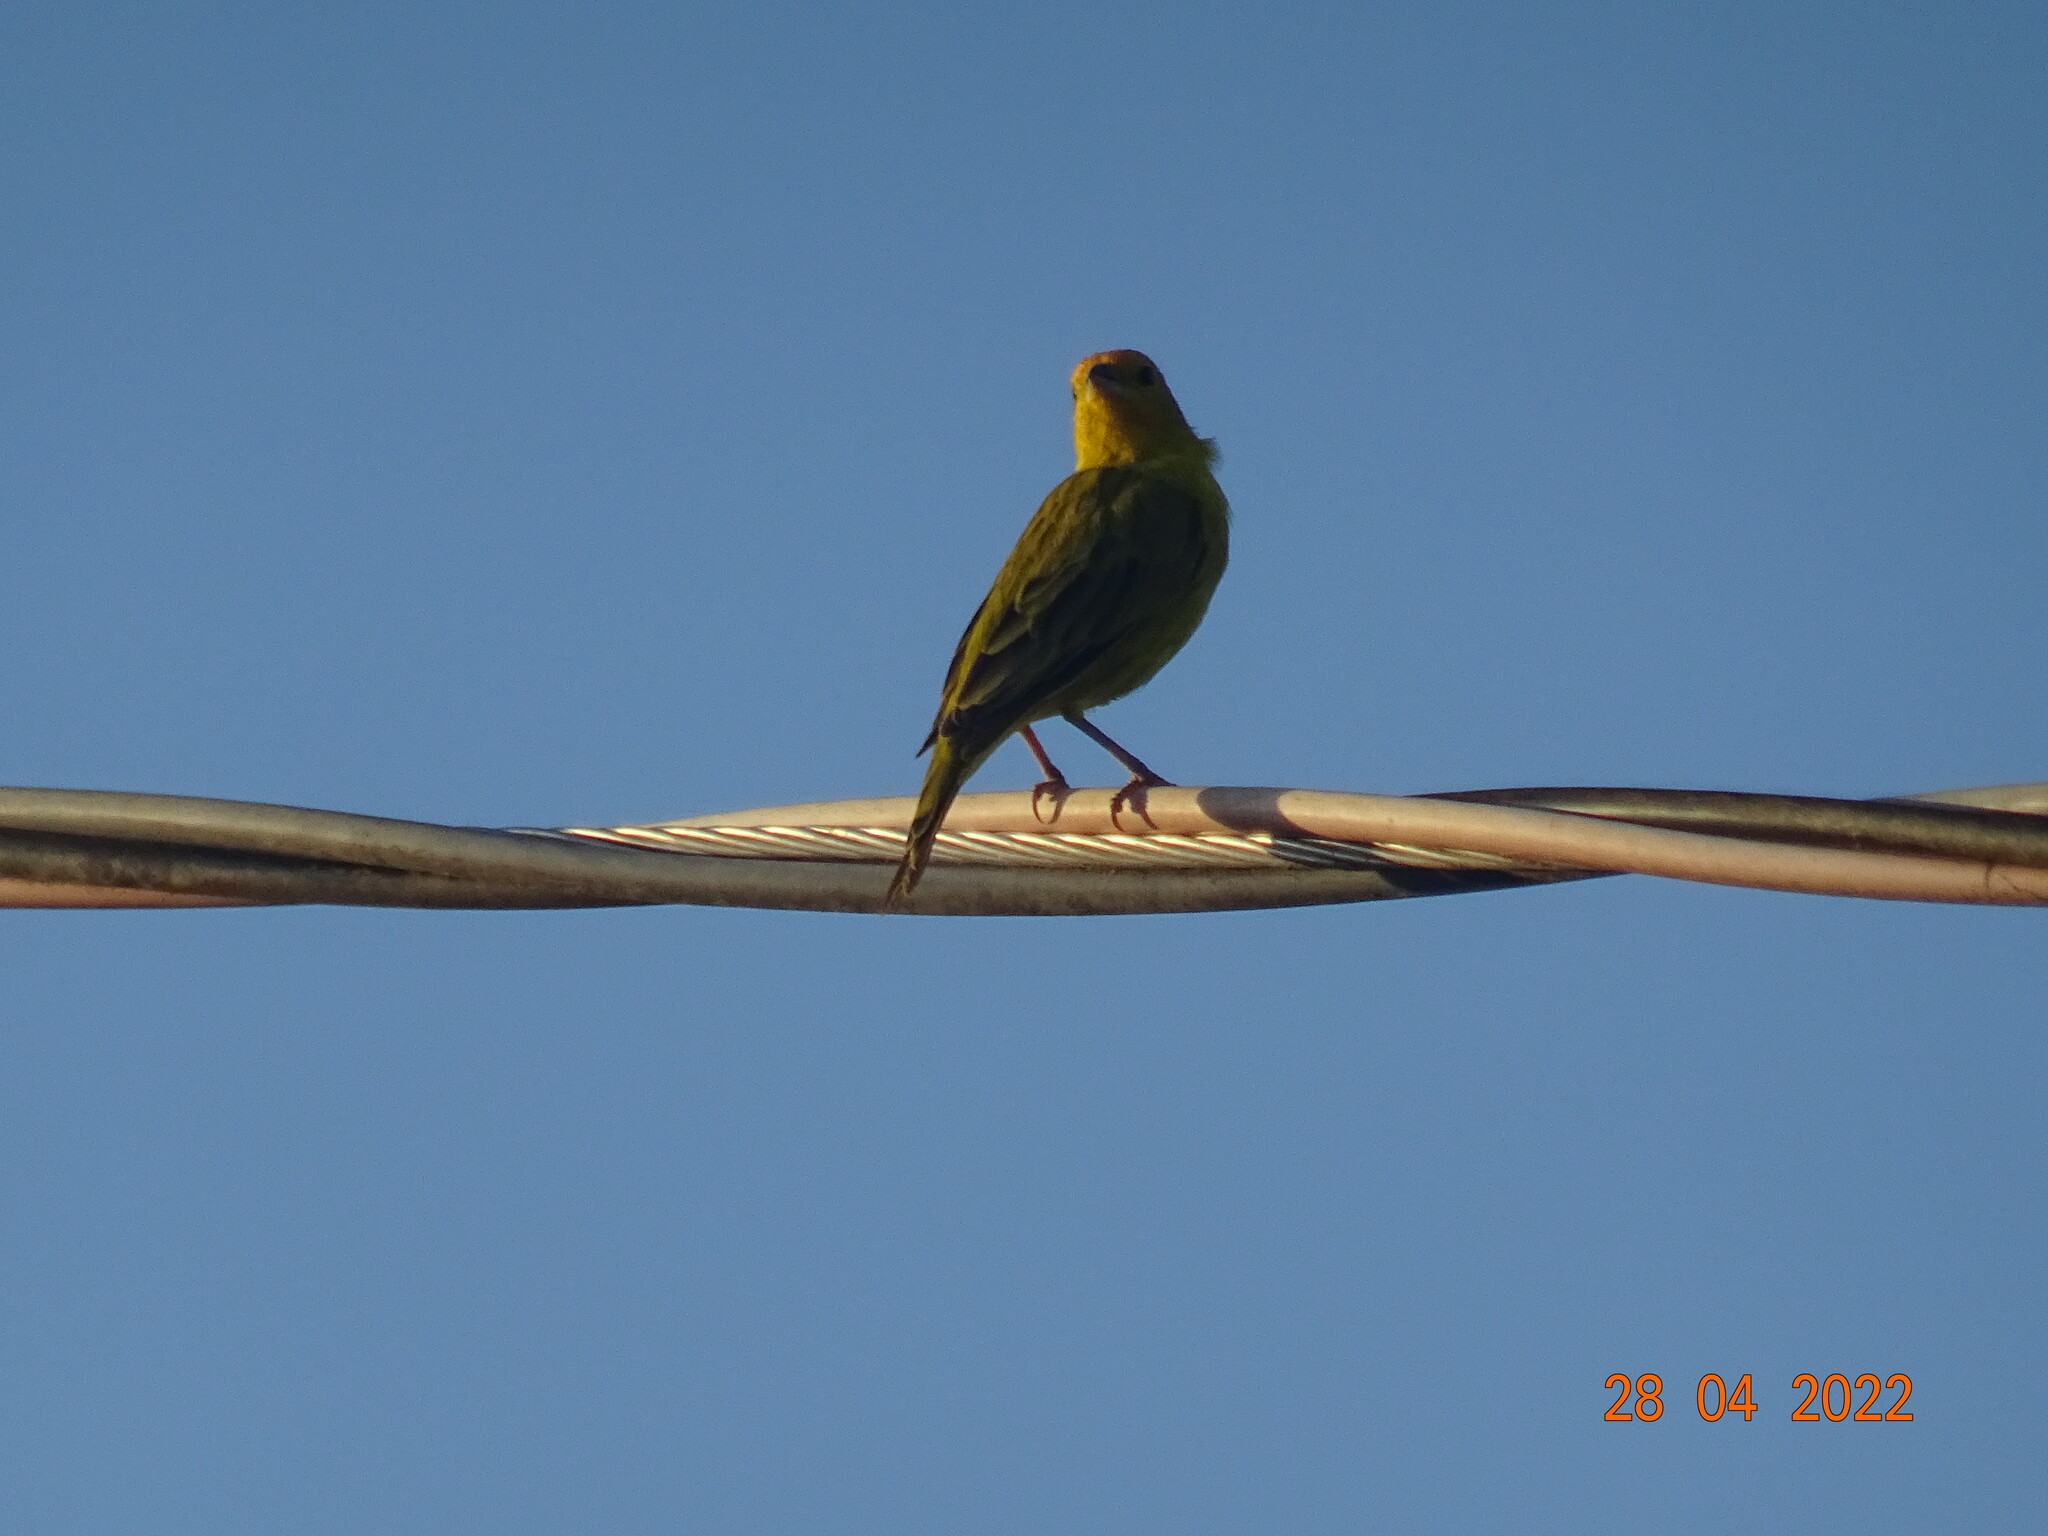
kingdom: Animalia
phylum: Chordata
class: Aves
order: Passeriformes
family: Thraupidae
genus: Sicalis
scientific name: Sicalis flaveola
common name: Saffron finch
